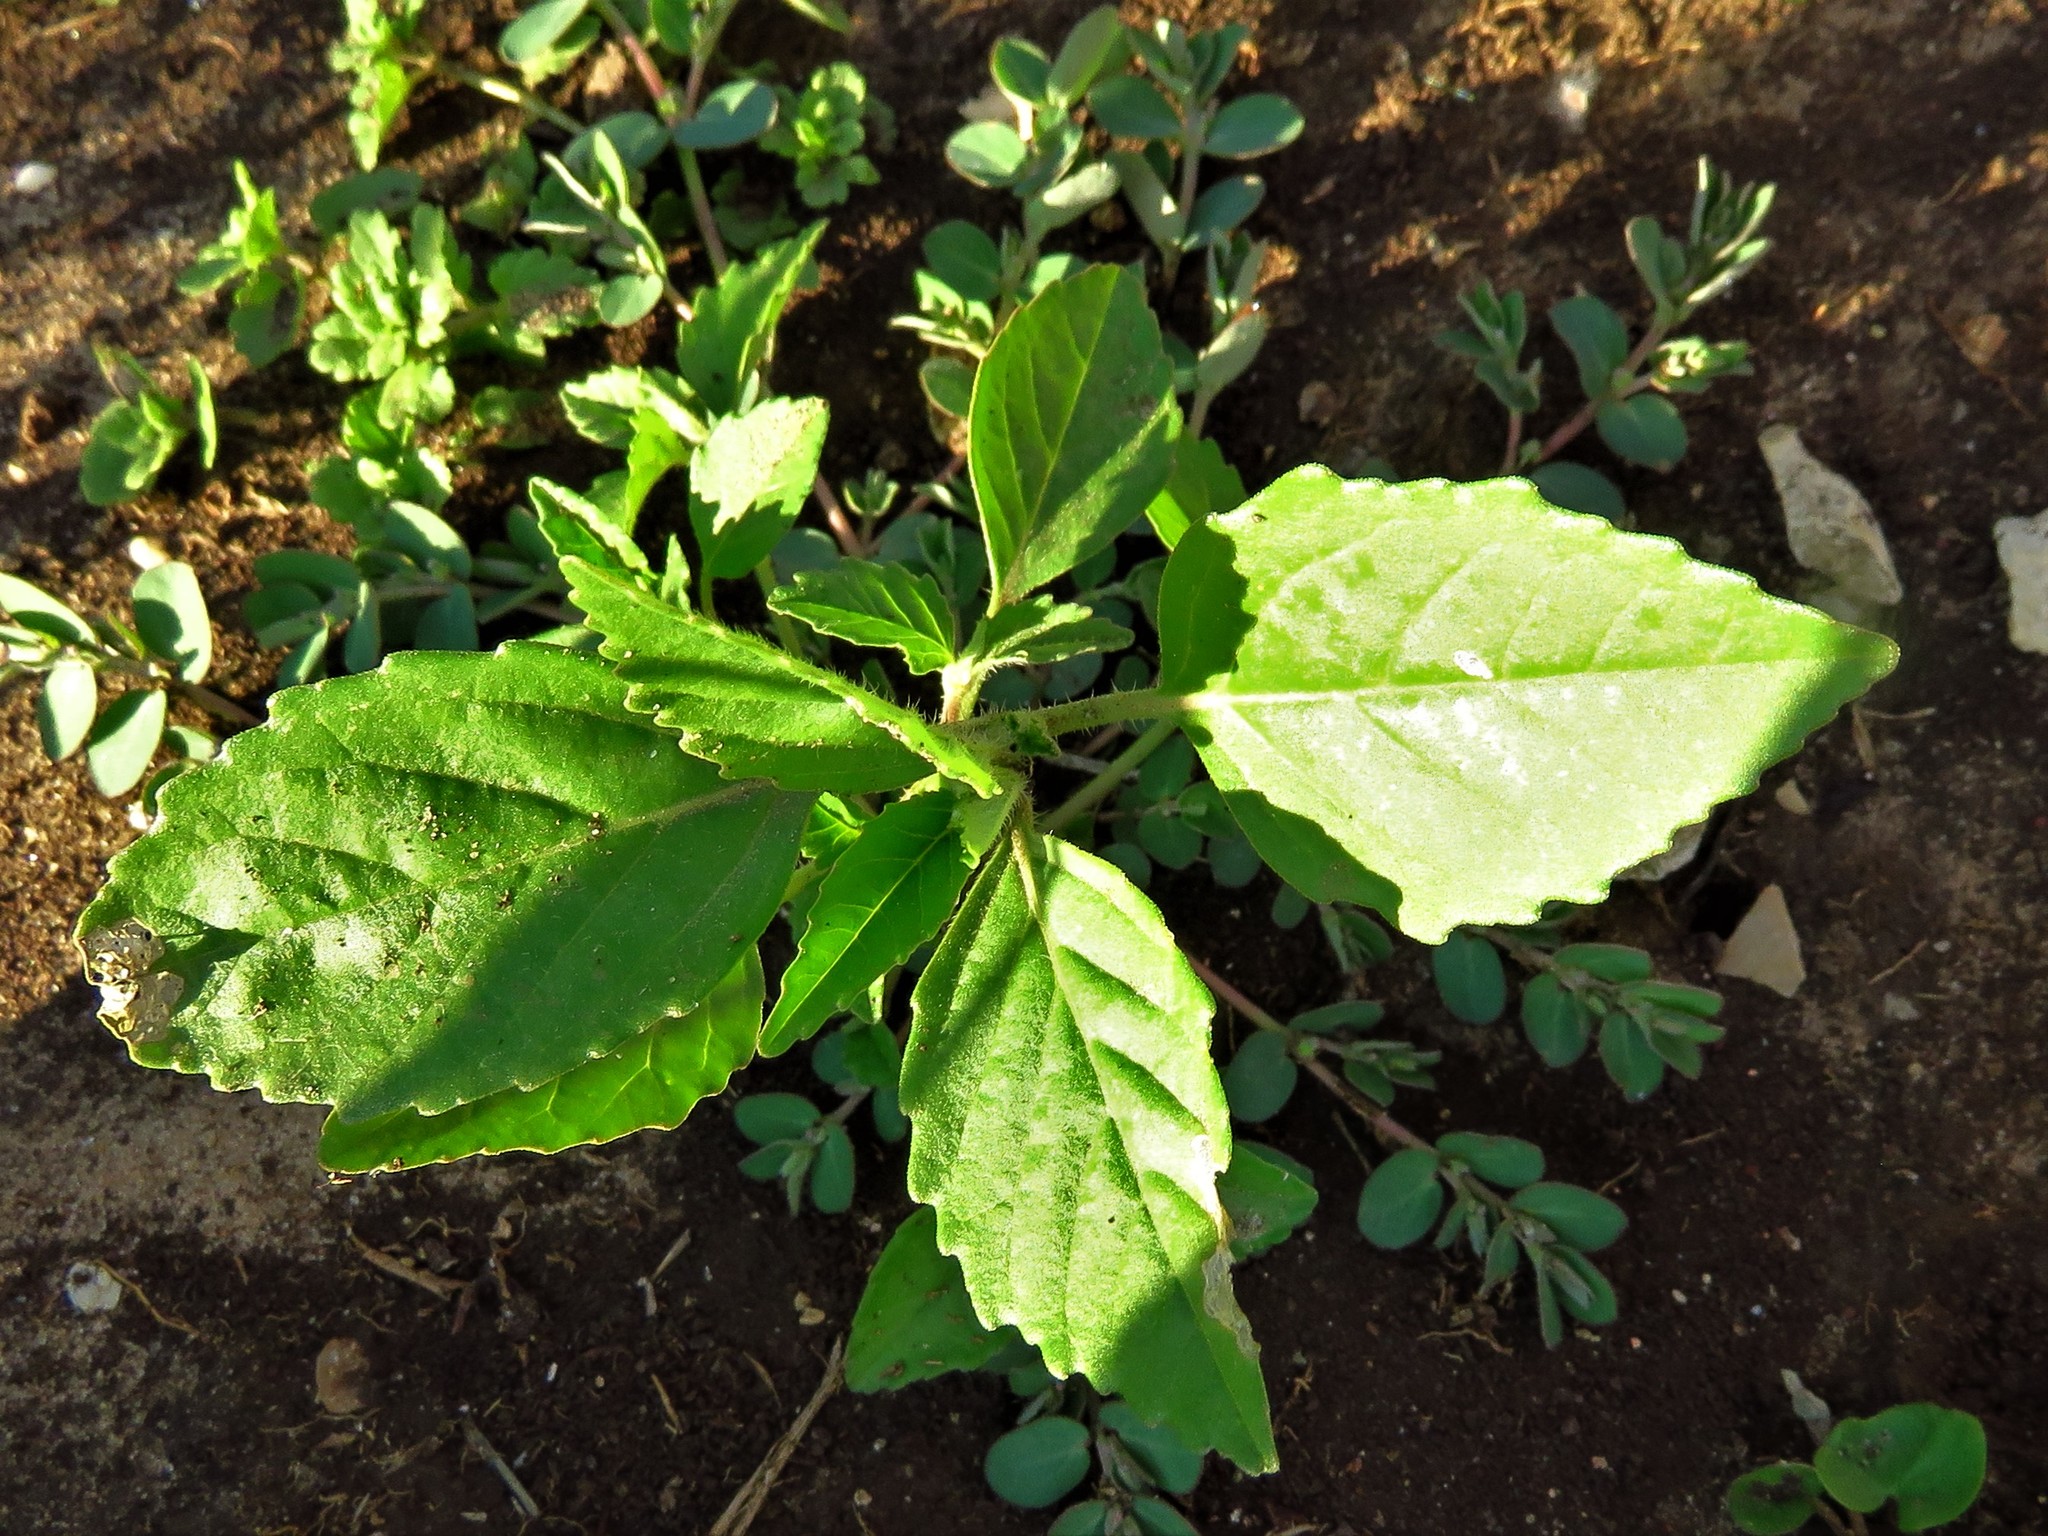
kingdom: Plantae
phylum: Tracheophyta
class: Magnoliopsida
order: Malpighiales
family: Euphorbiaceae
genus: Euphorbia
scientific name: Euphorbia dentata
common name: Dentate spurge
